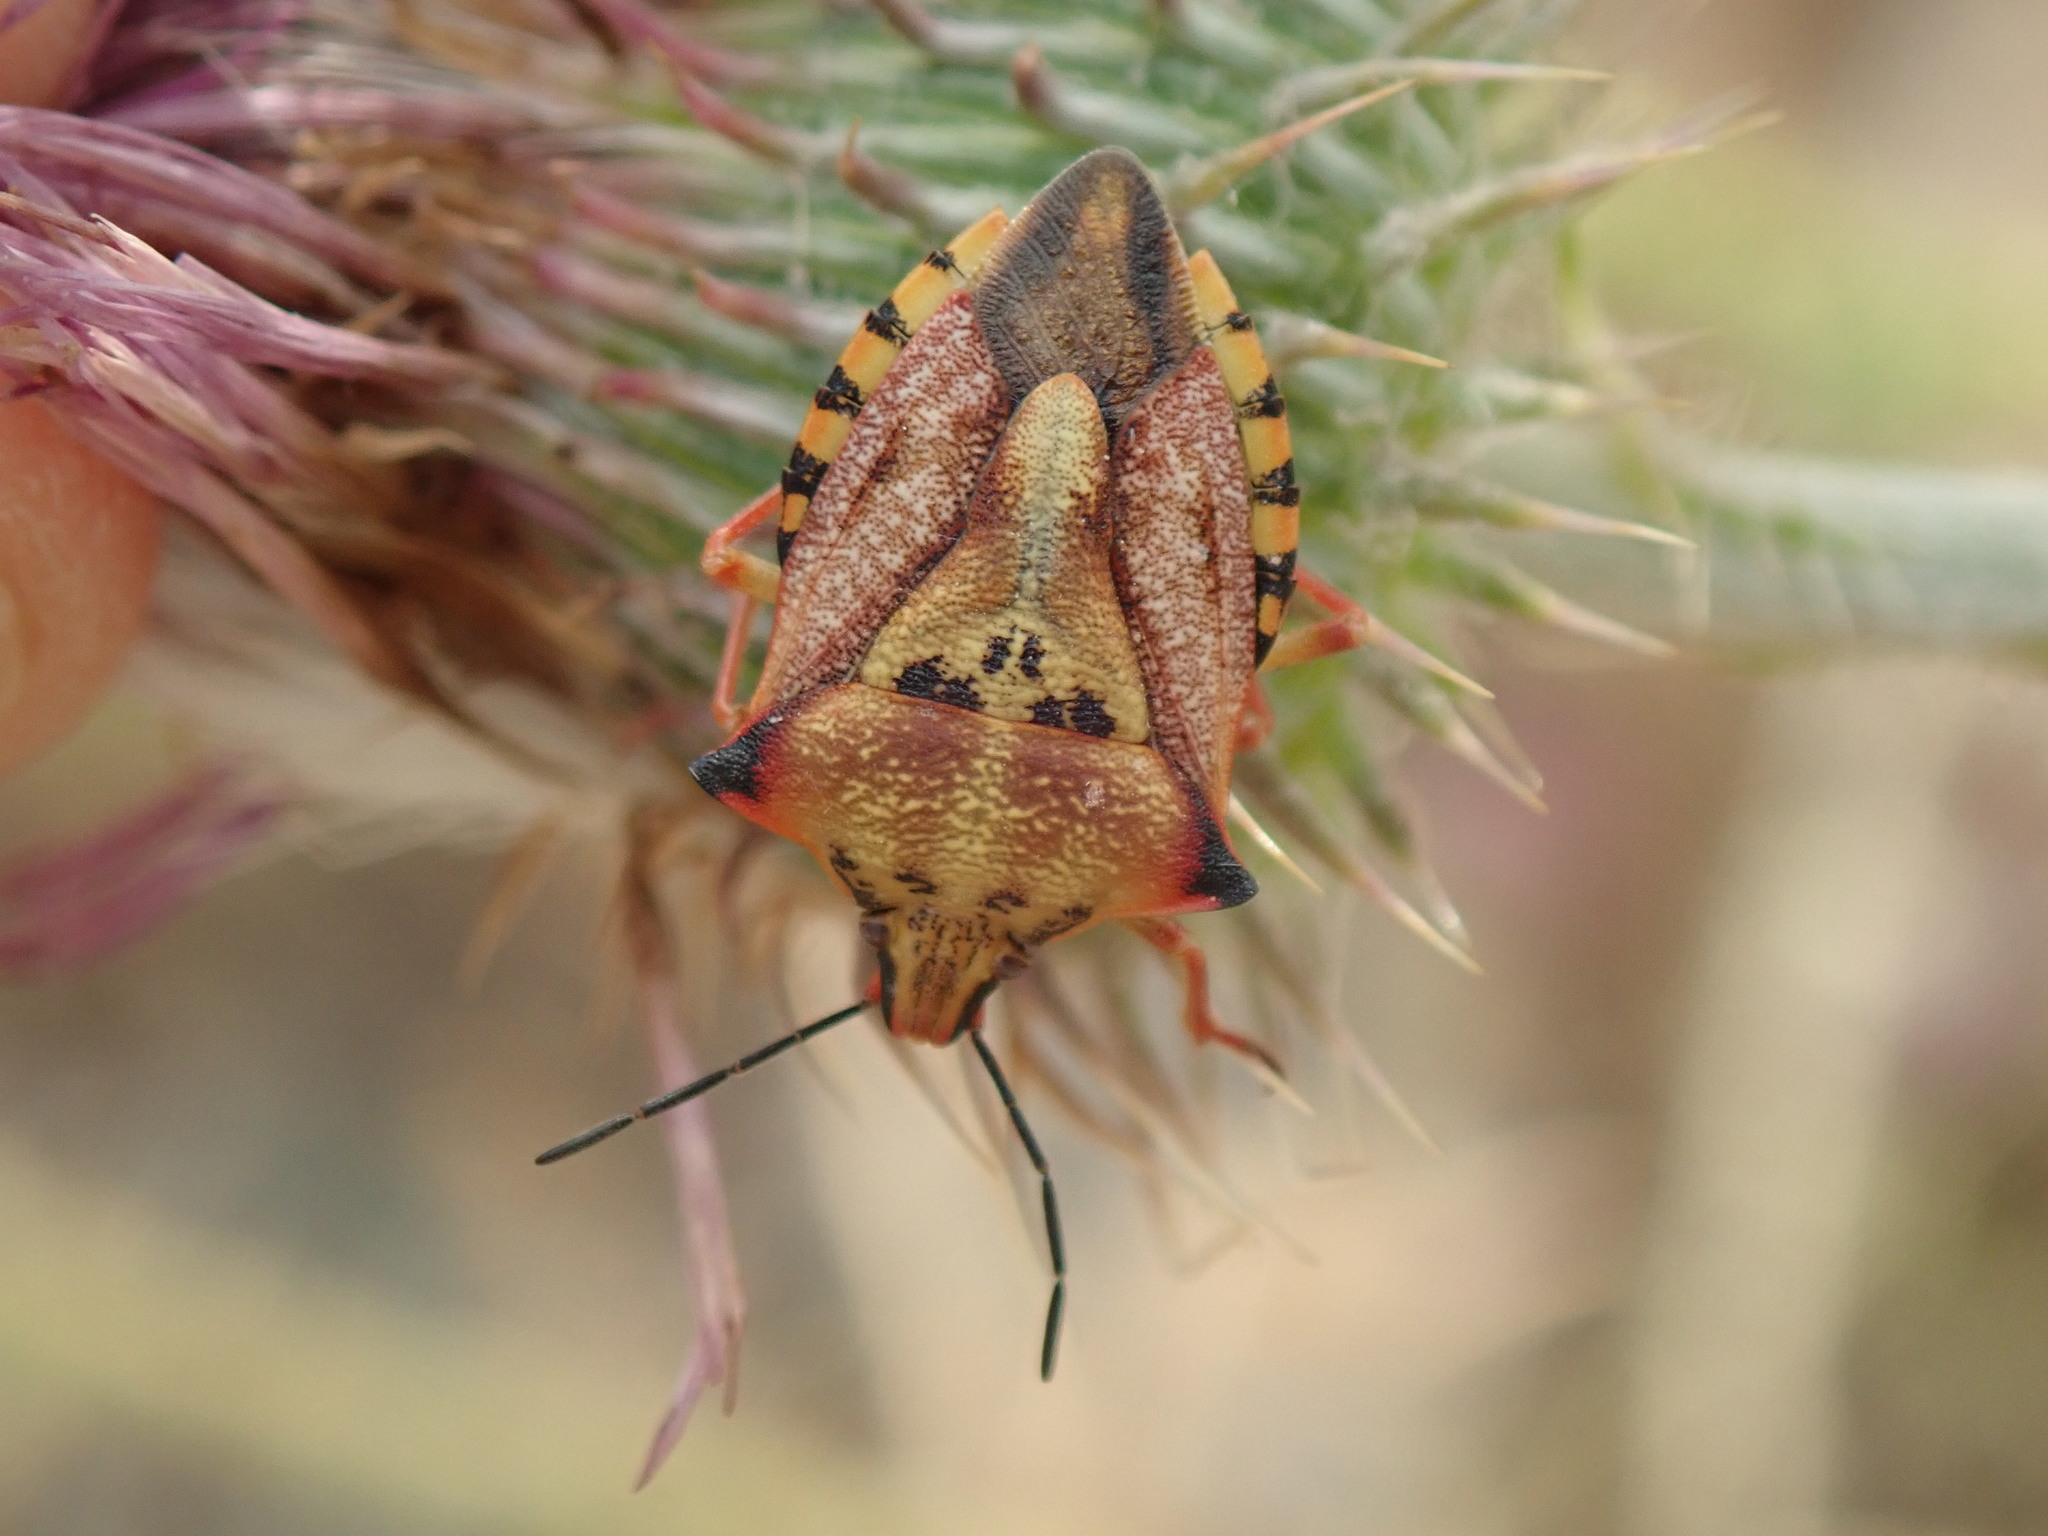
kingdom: Animalia
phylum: Arthropoda
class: Insecta
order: Hemiptera
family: Pentatomidae
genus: Carpocoris
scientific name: Carpocoris mediterraneus
